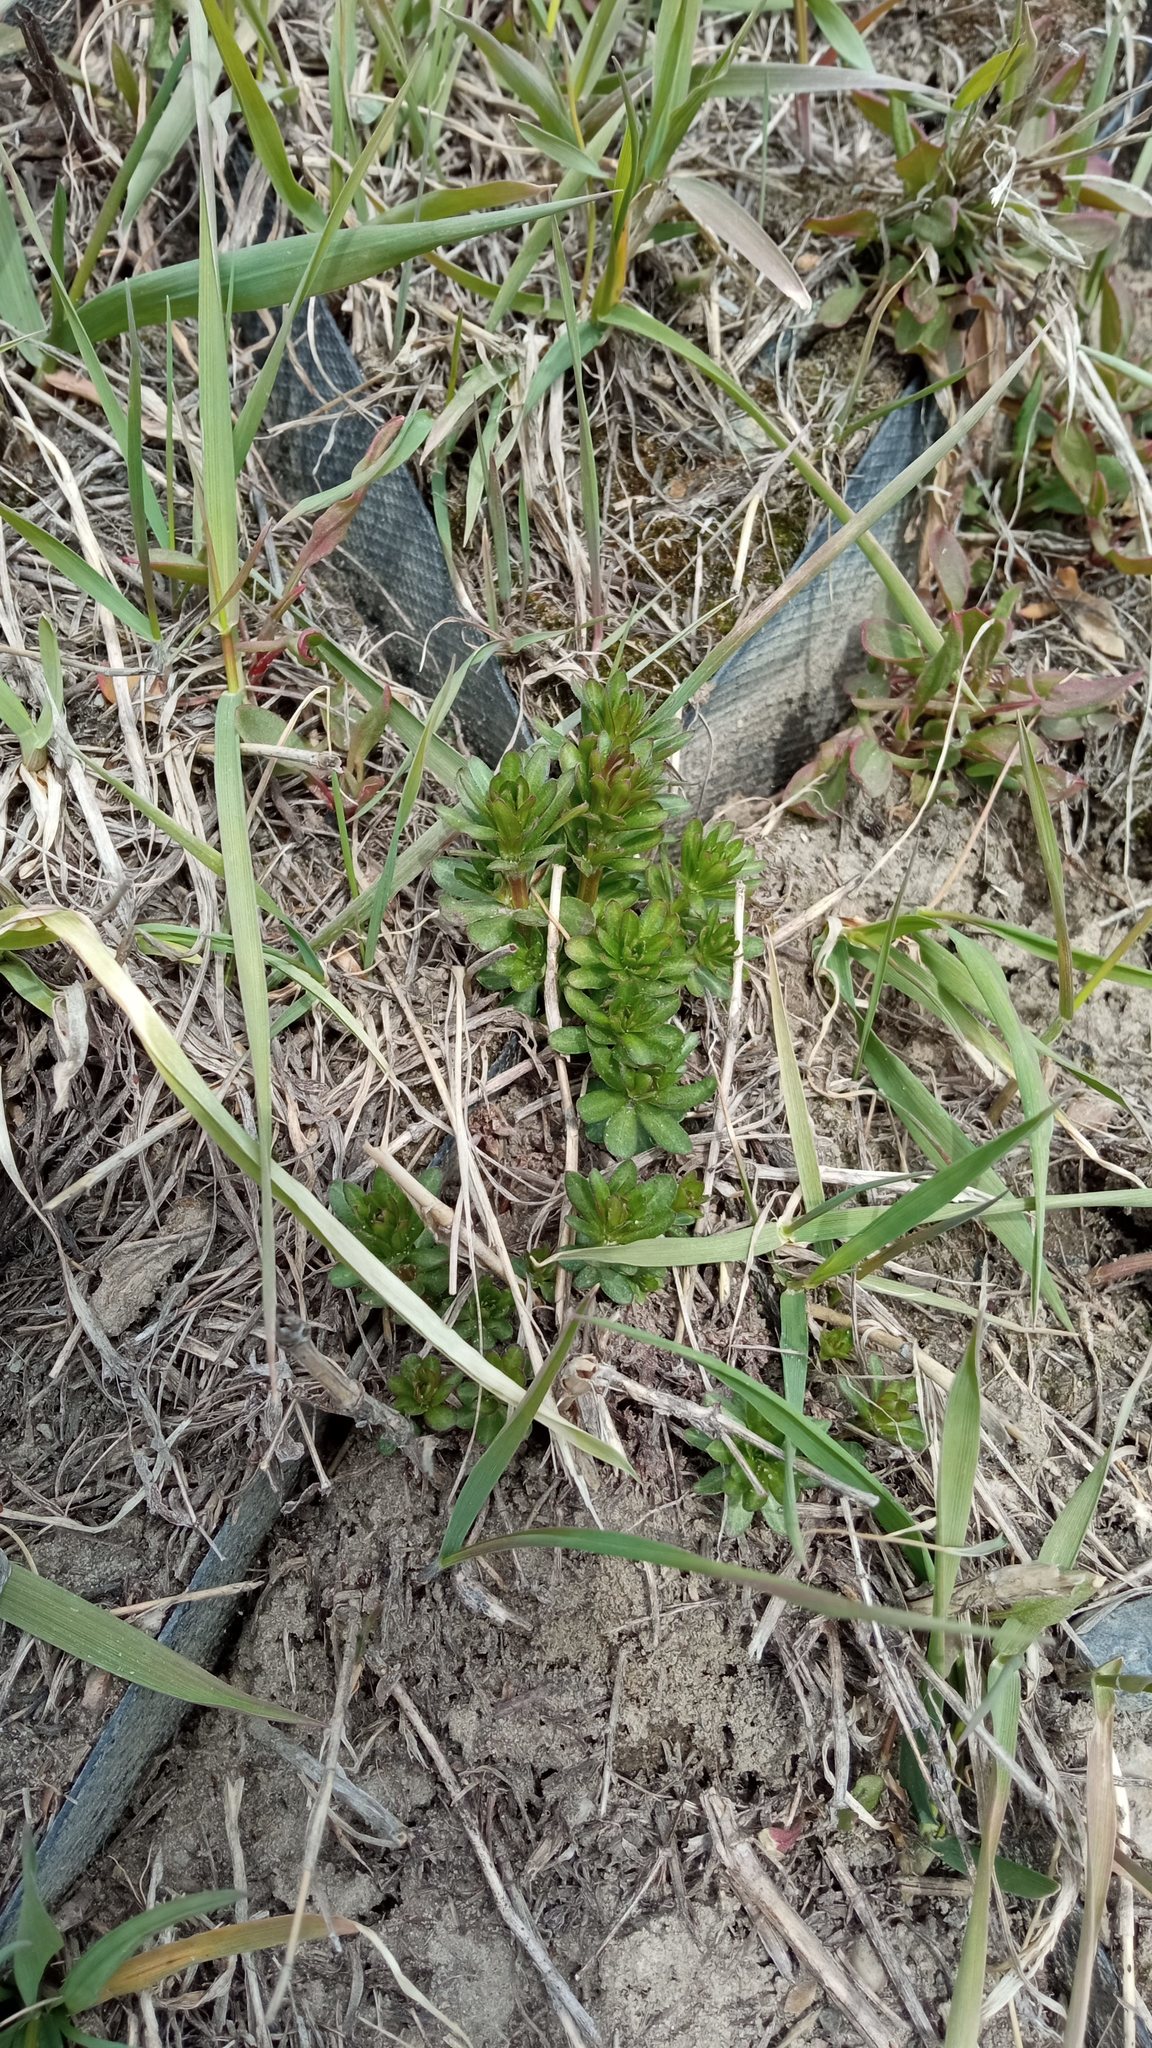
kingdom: Plantae
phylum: Tracheophyta
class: Magnoliopsida
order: Gentianales
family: Rubiaceae
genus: Galium
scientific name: Galium mollugo
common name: Hedge bedstraw
